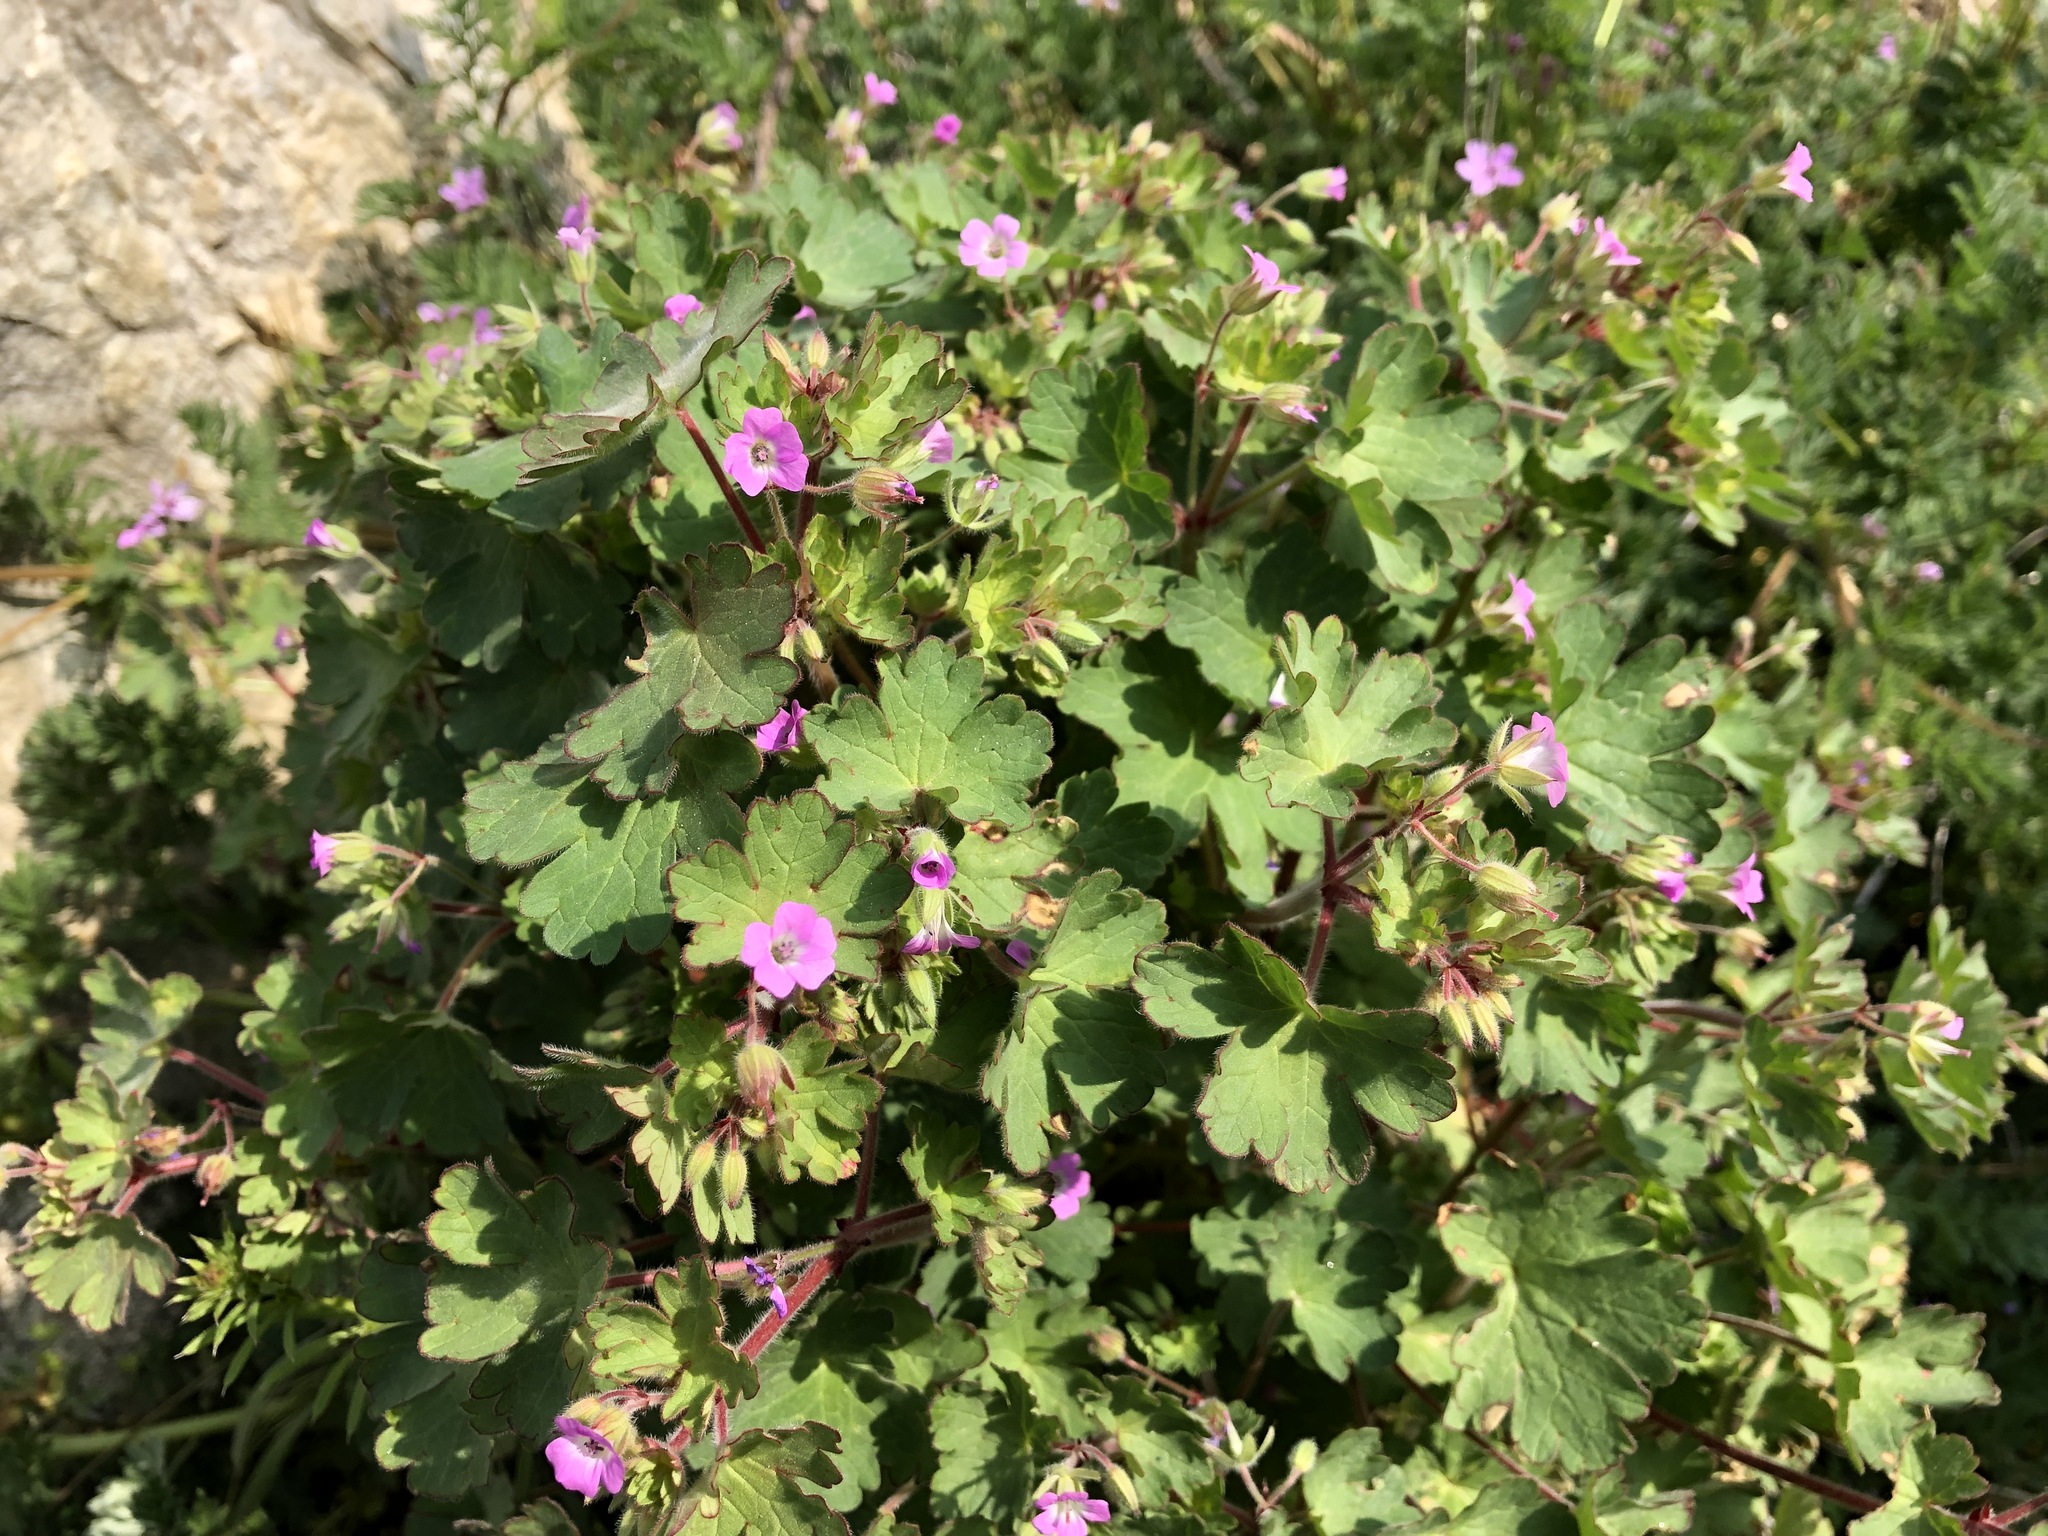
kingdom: Plantae
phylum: Tracheophyta
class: Magnoliopsida
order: Geraniales
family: Geraniaceae
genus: Geranium
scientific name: Geranium rotundifolium
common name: Round-leaved crane's-bill
